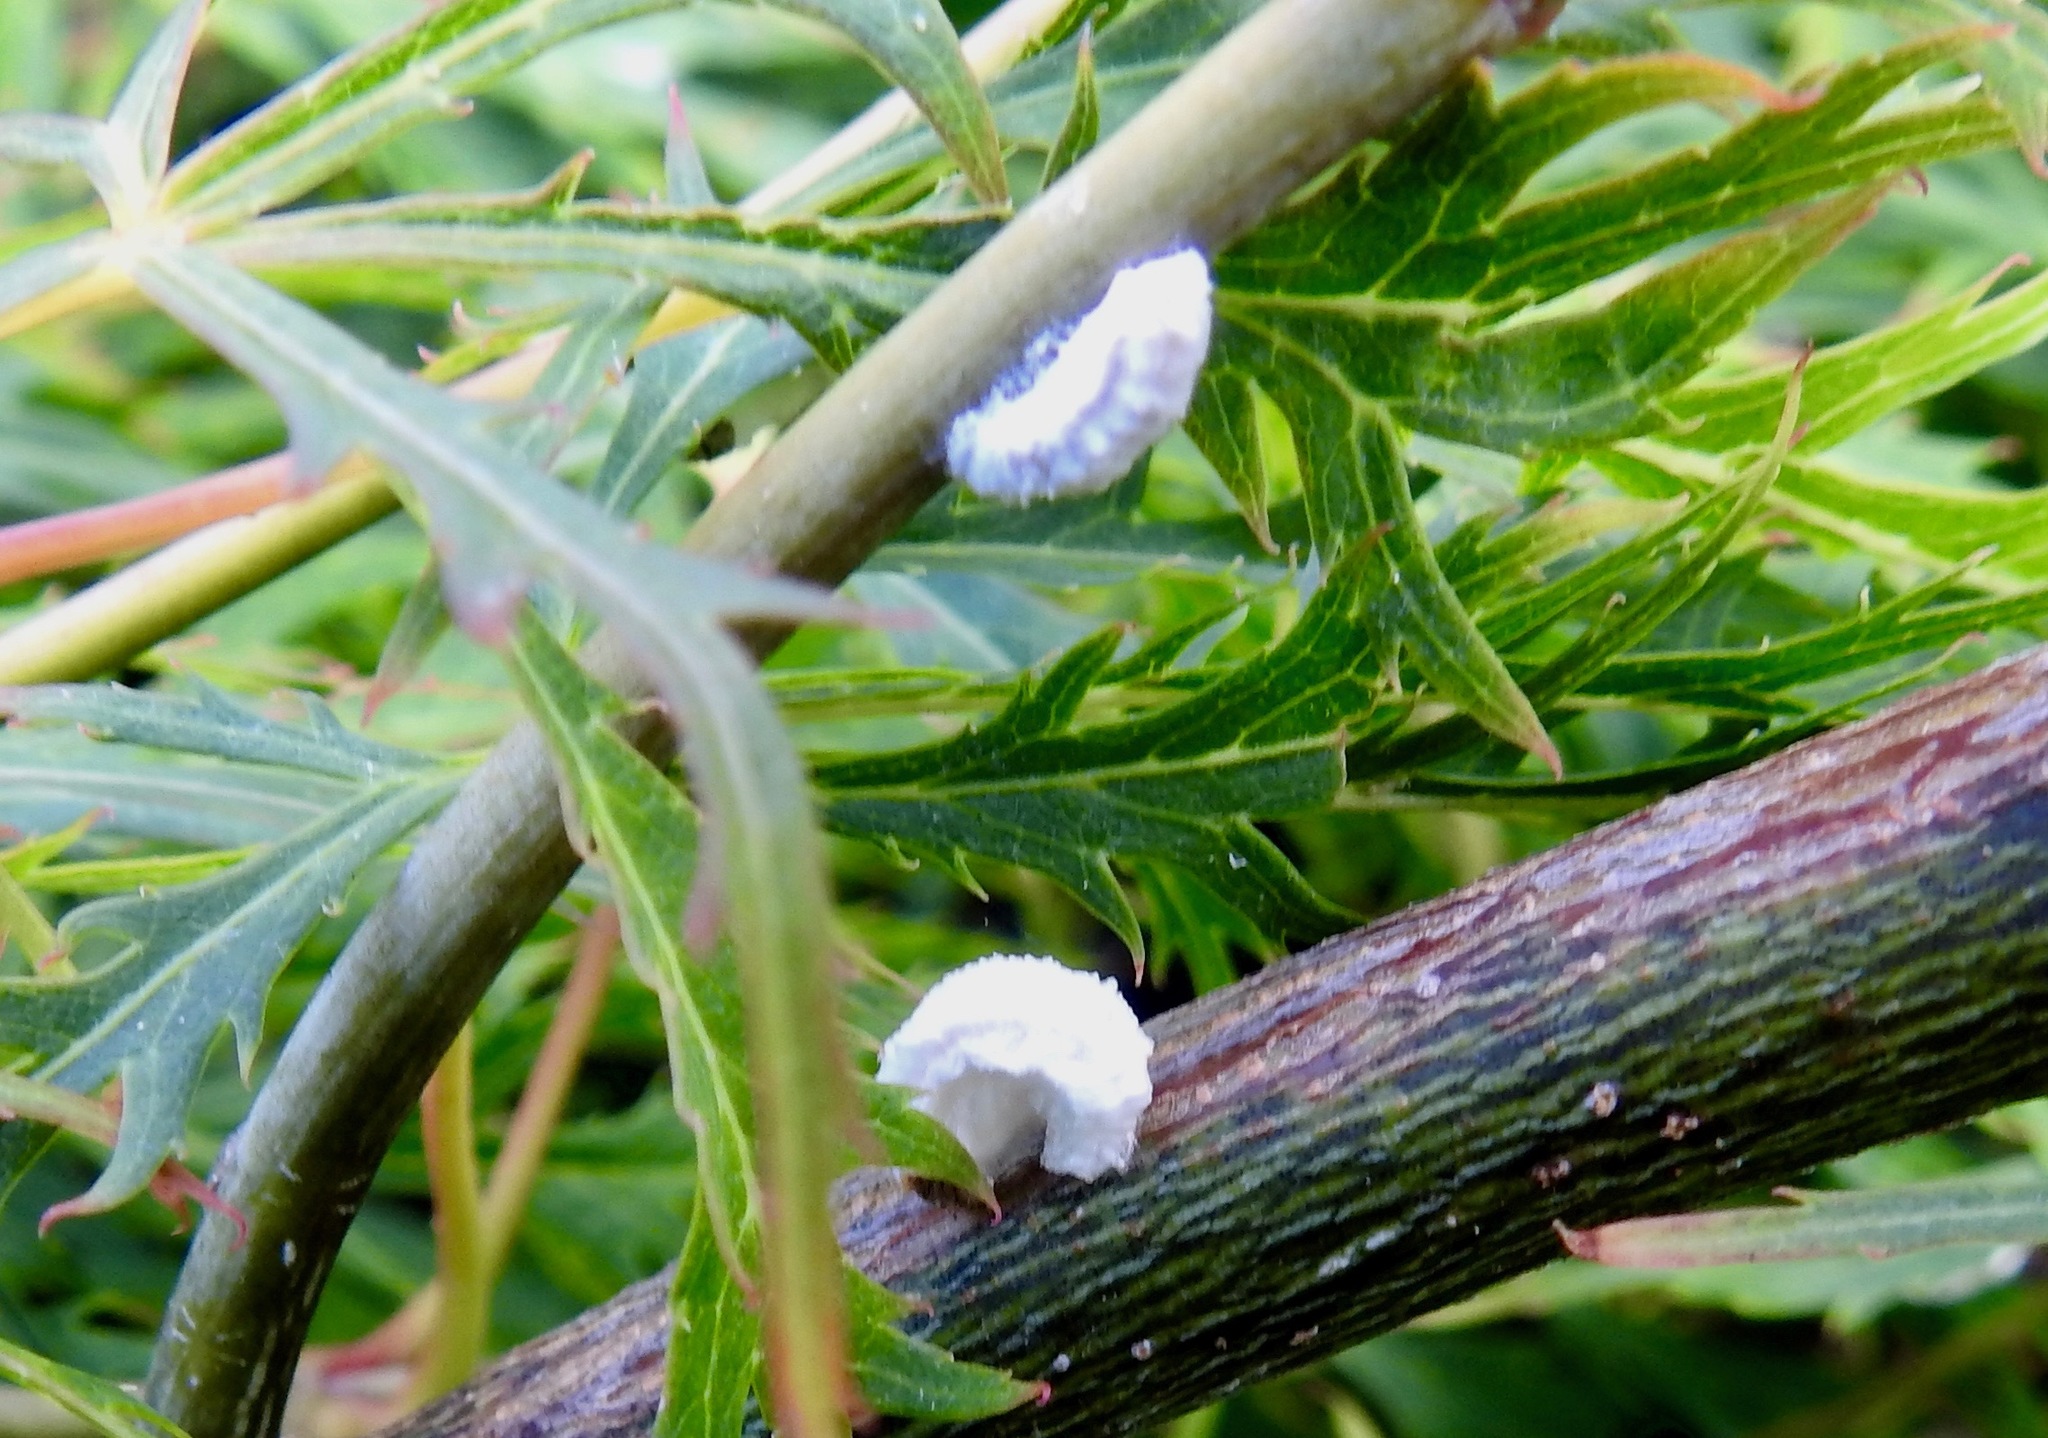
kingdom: Animalia
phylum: Arthropoda
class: Insecta
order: Hemiptera
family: Margarodidae
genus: Icerya
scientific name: Icerya purchasi
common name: Cottony cushion scale
